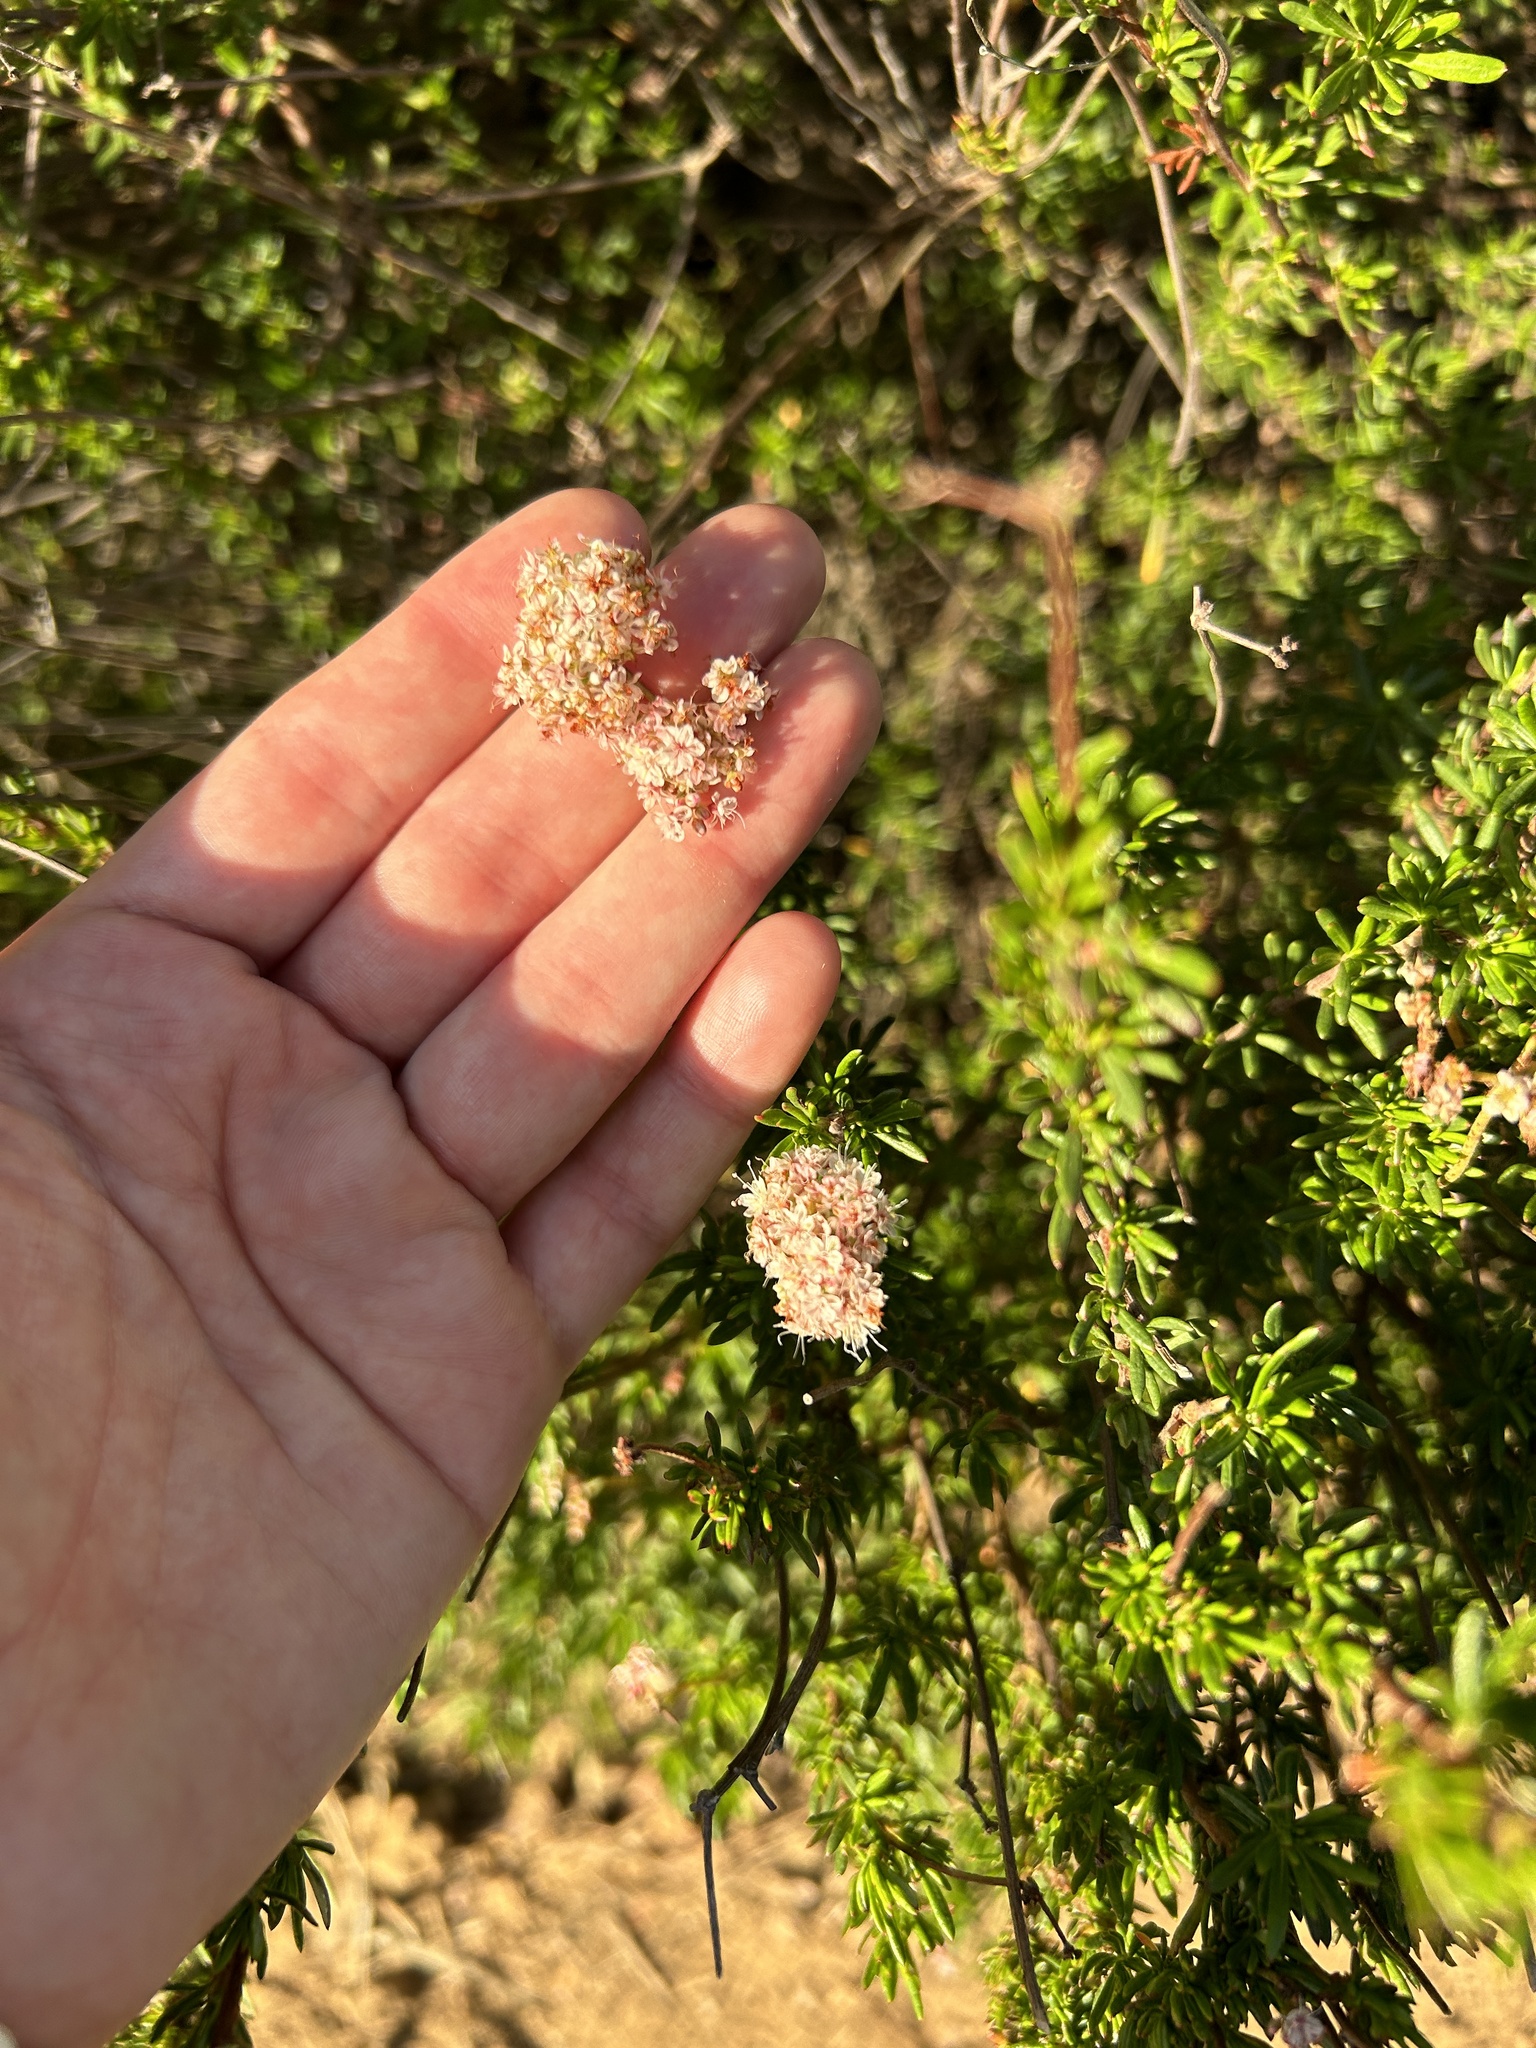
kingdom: Plantae
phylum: Tracheophyta
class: Magnoliopsida
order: Caryophyllales
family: Polygonaceae
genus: Eriogonum
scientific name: Eriogonum fasciculatum
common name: California wild buckwheat
